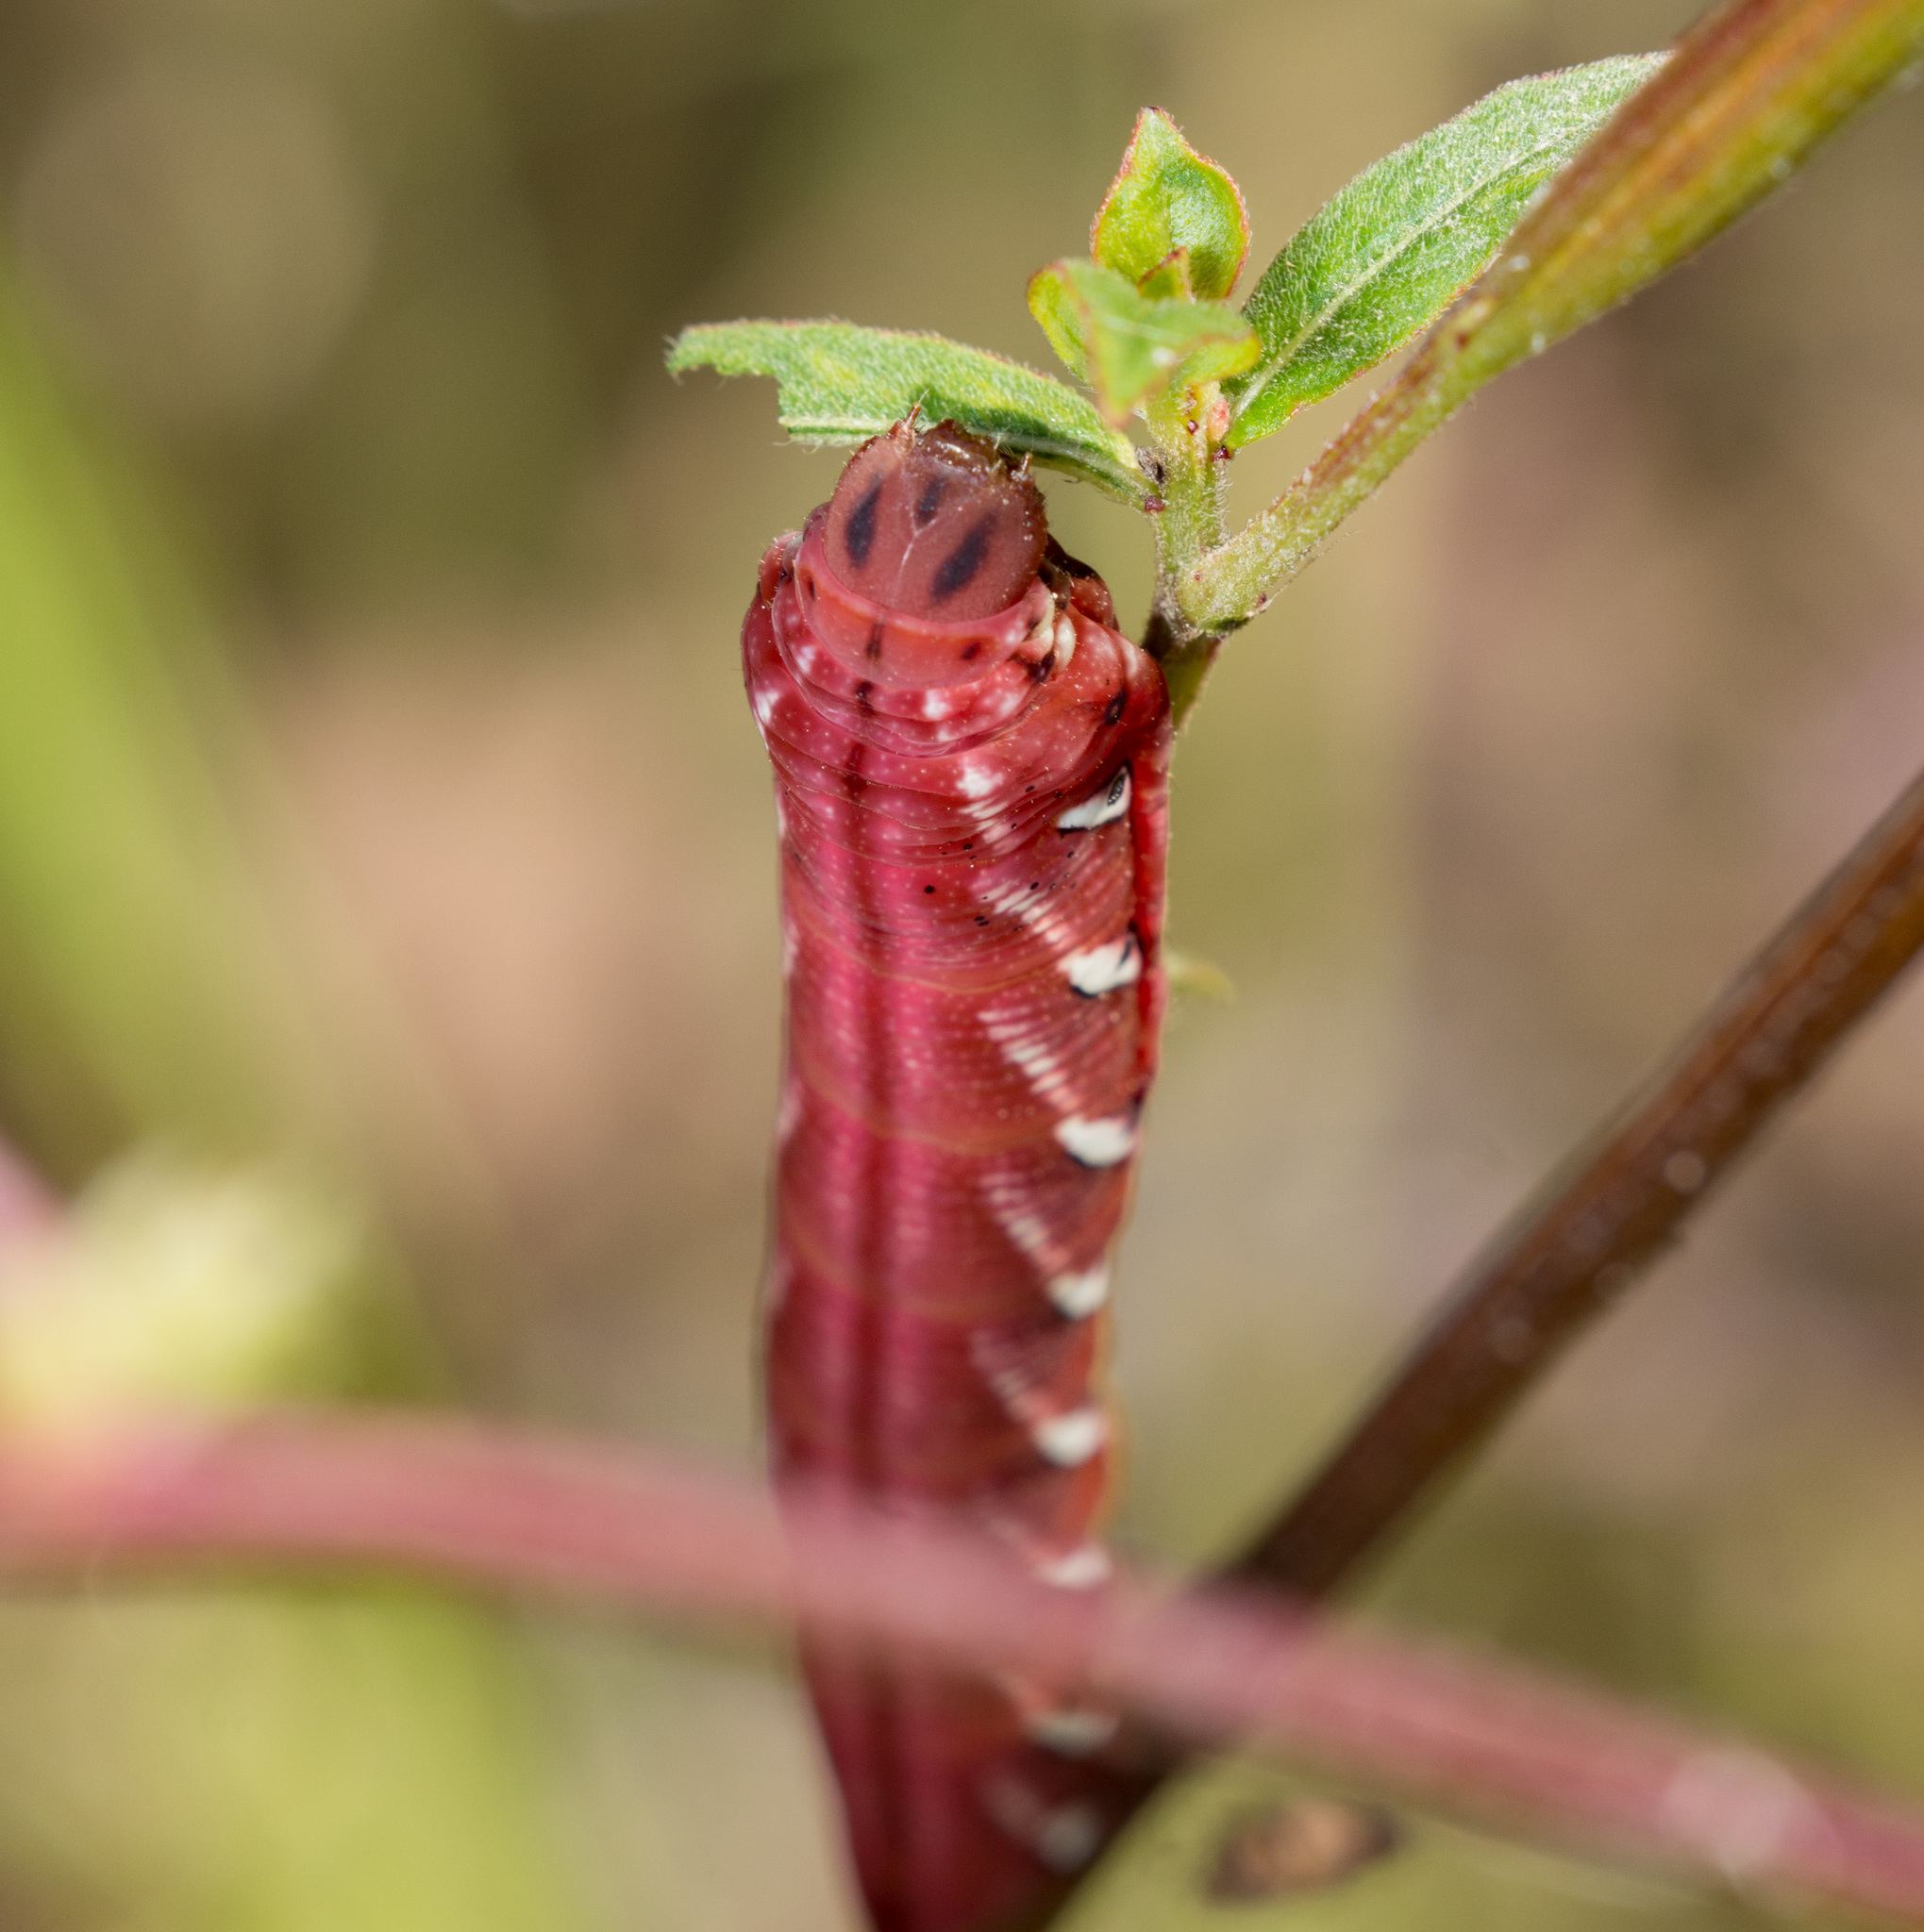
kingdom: Animalia
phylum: Arthropoda
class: Insecta
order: Lepidoptera
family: Sphingidae
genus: Eumorpha
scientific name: Eumorpha fasciatus
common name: Banded sphinx
